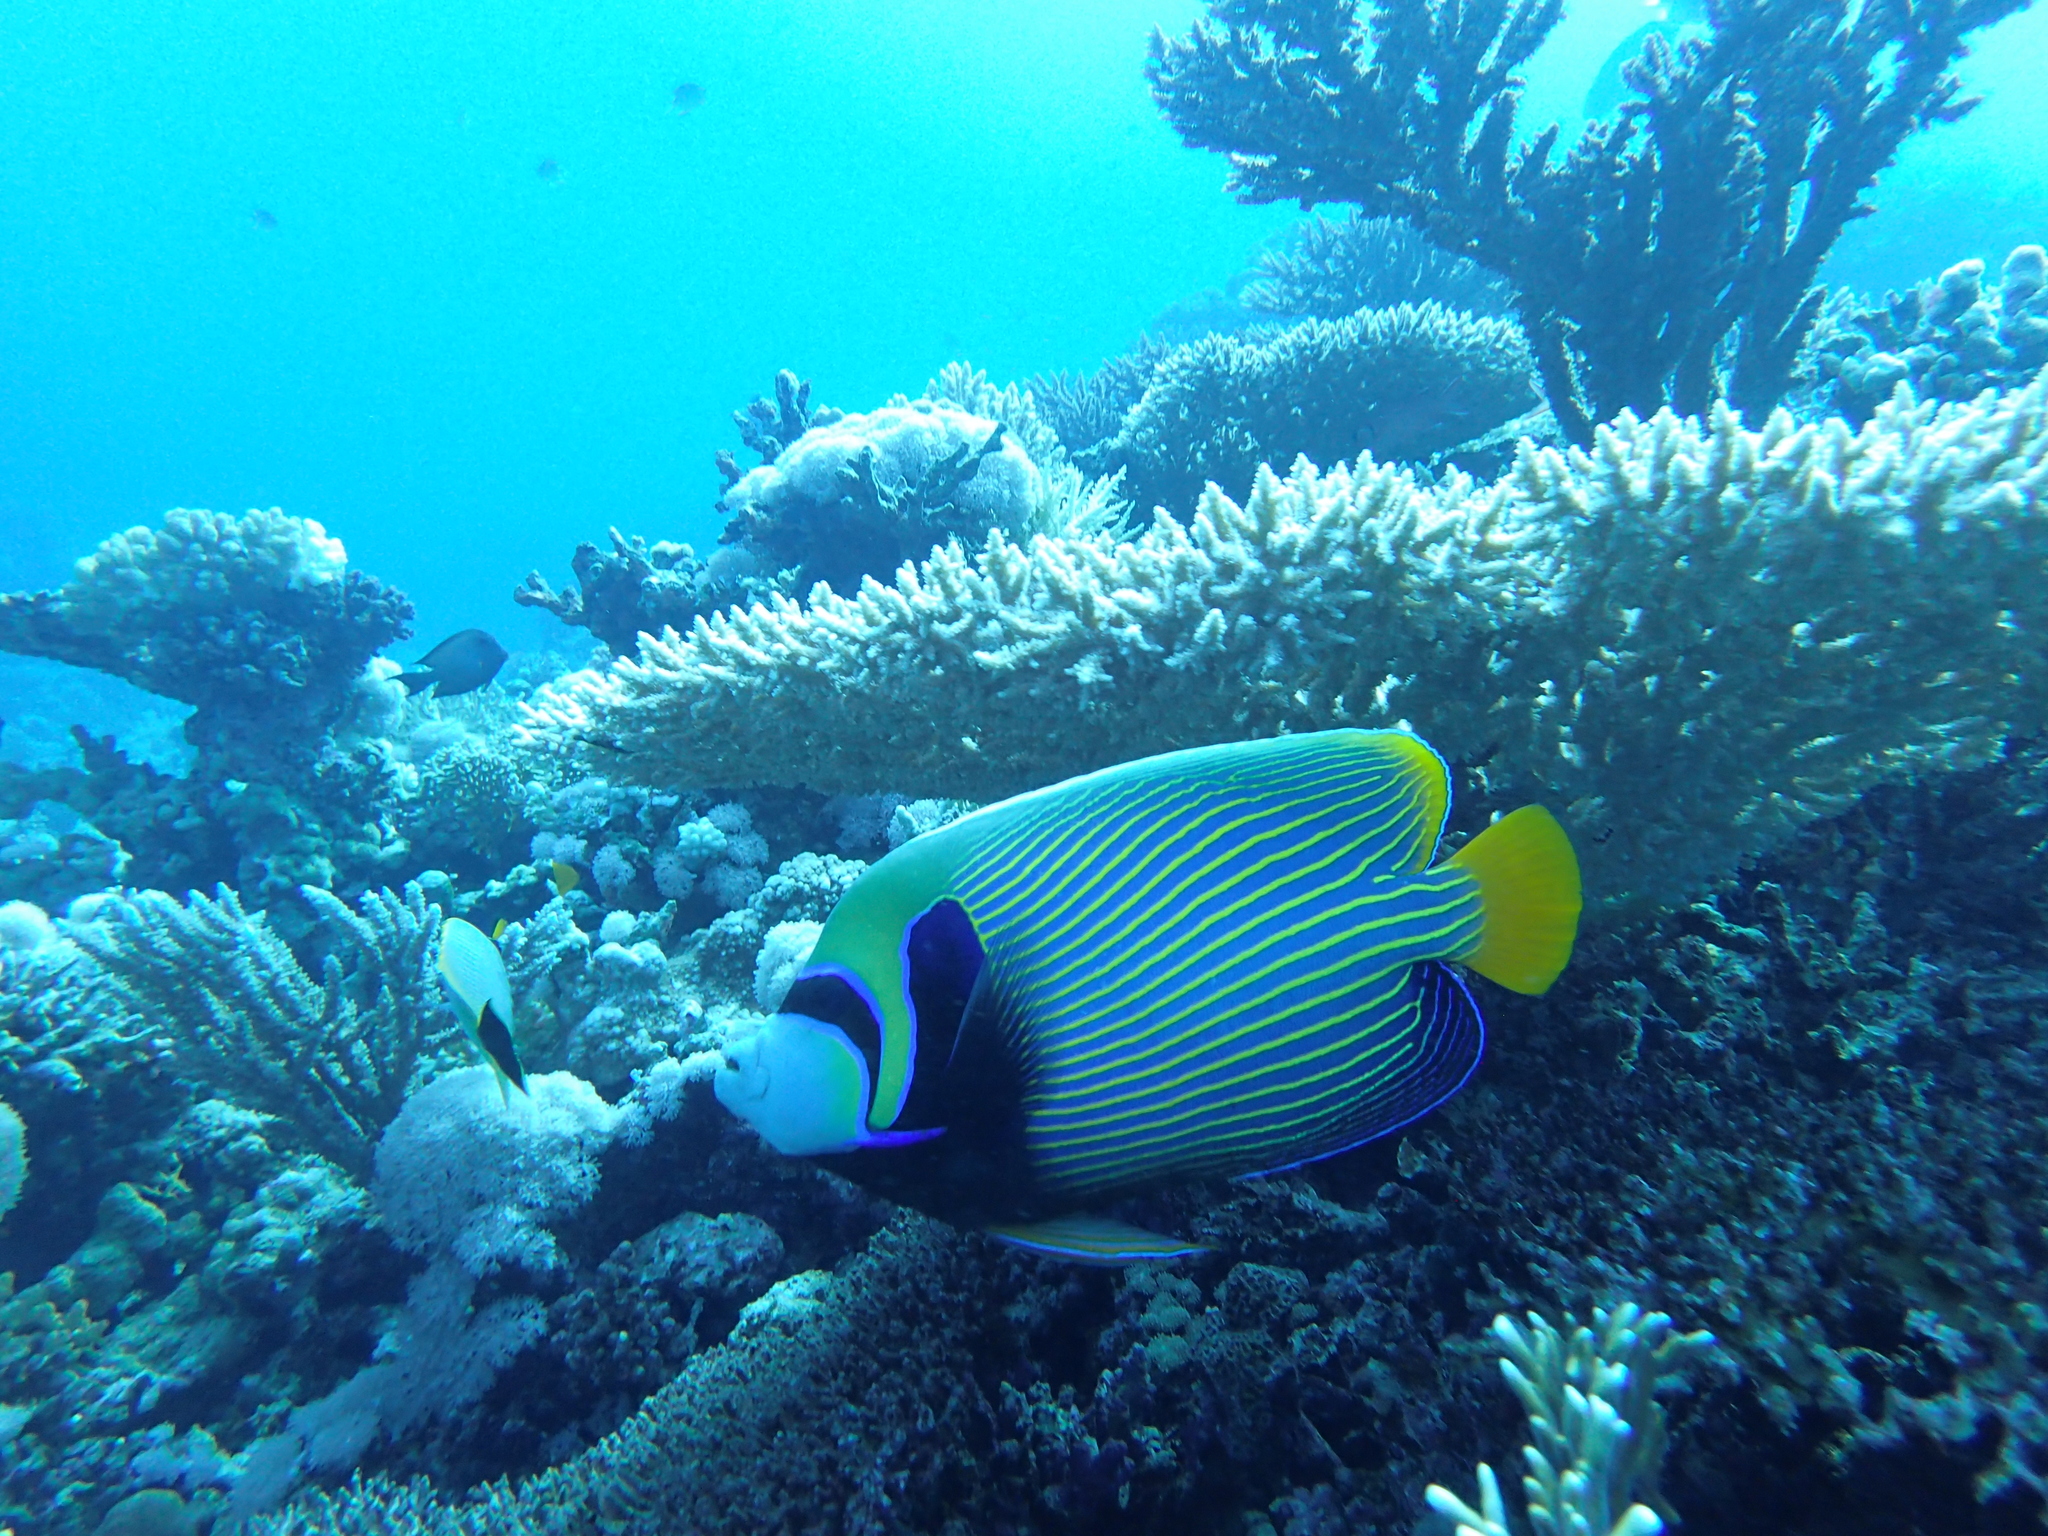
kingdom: Animalia
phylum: Chordata
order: Perciformes
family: Pomacanthidae
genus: Pomacanthus
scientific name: Pomacanthus imperator
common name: Emperor angelfish
